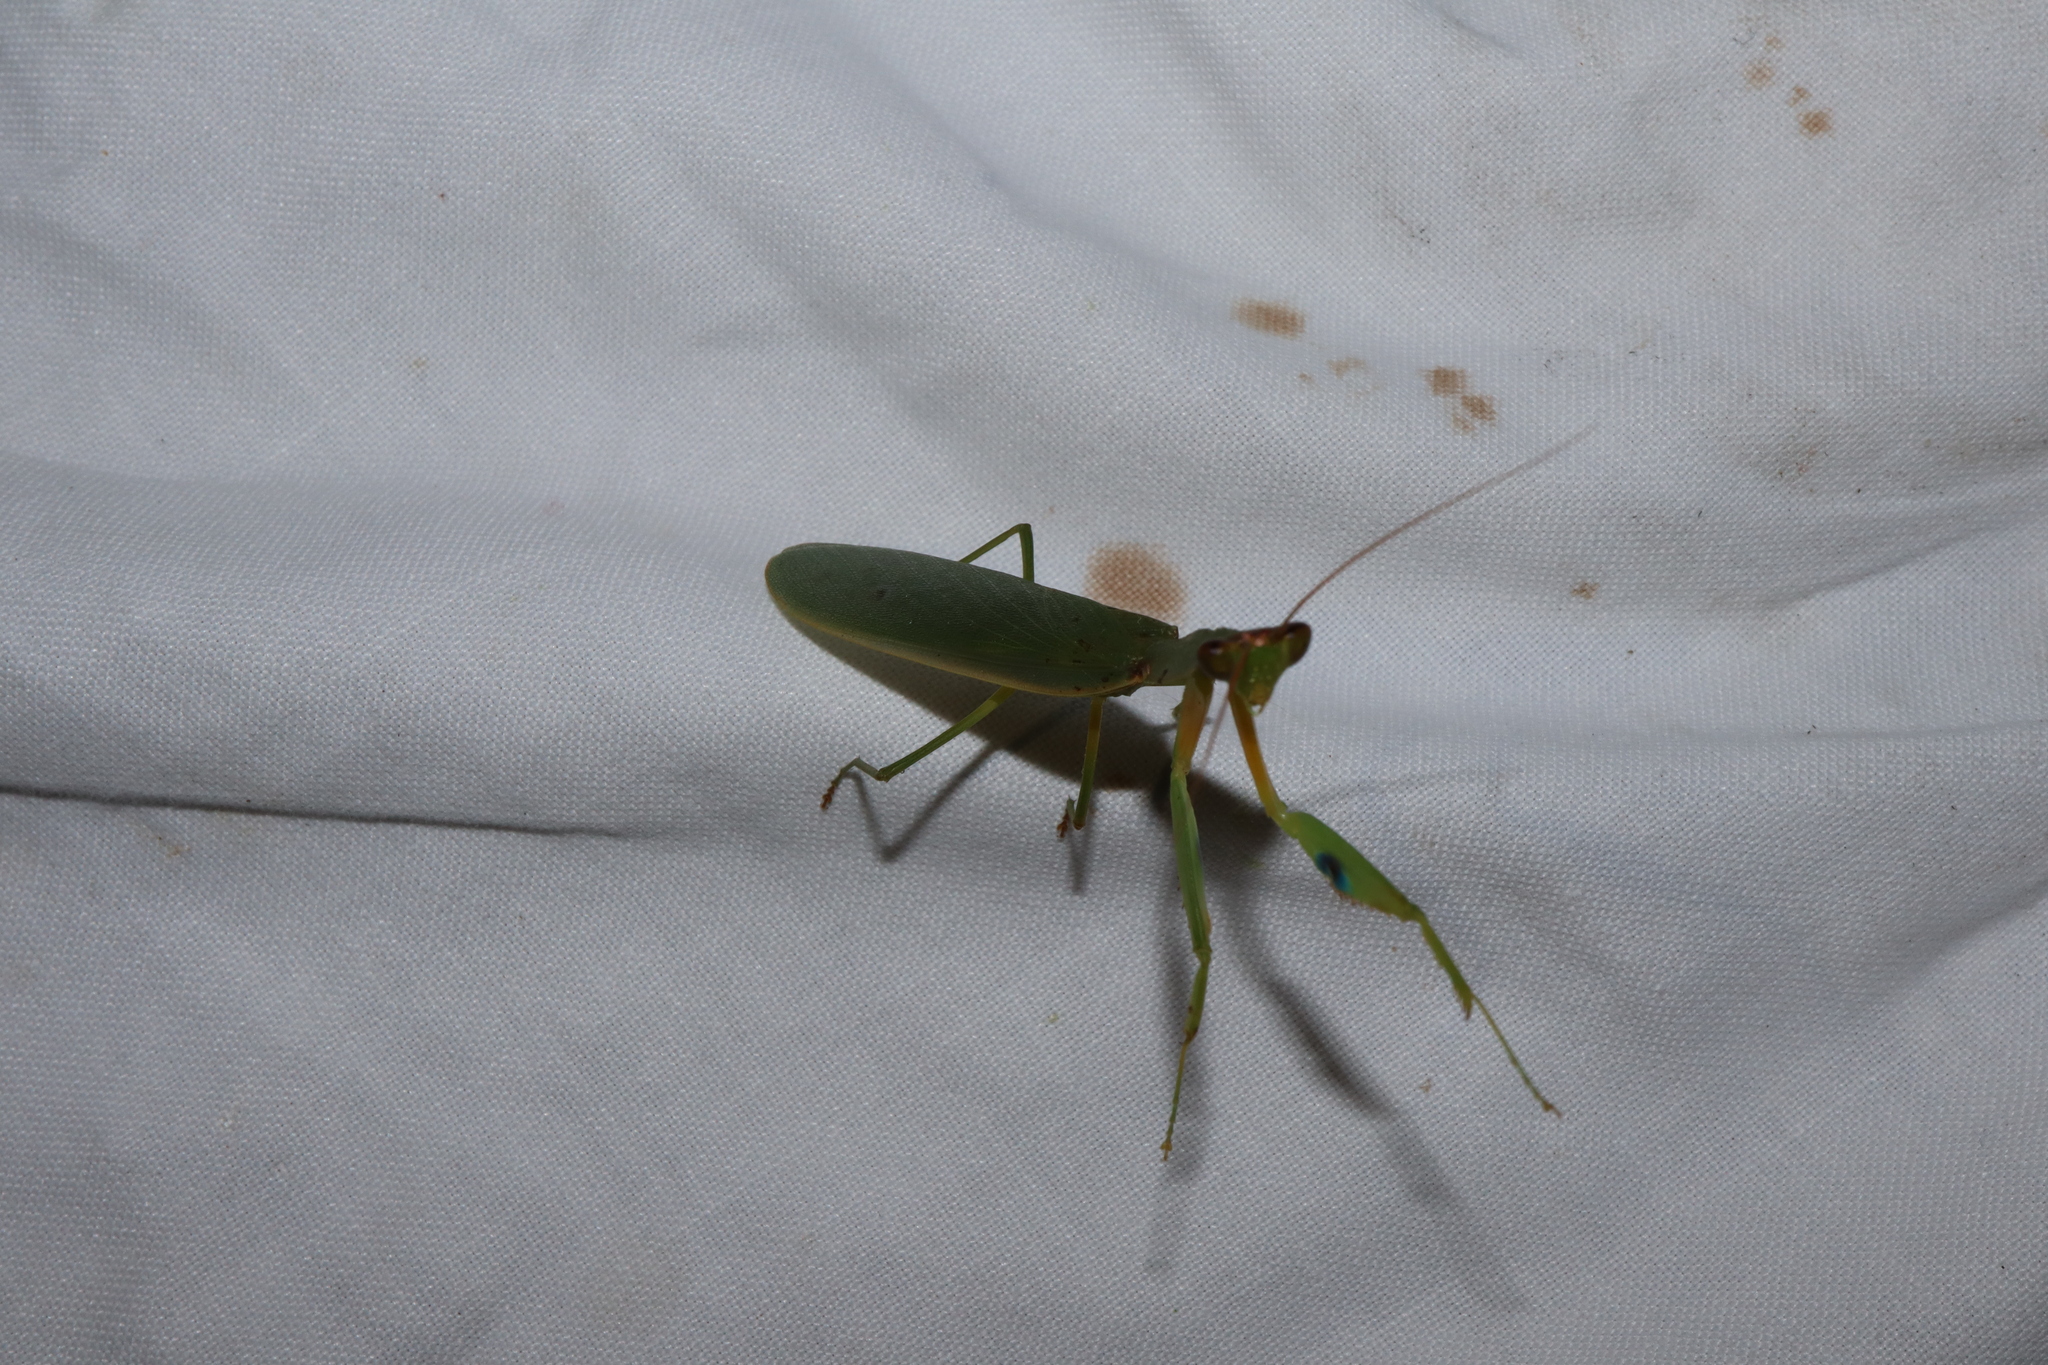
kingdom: Animalia
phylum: Arthropoda
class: Insecta
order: Mantodea
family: Mantidae
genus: Orthodera
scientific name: Orthodera ministralis
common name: Mantis
